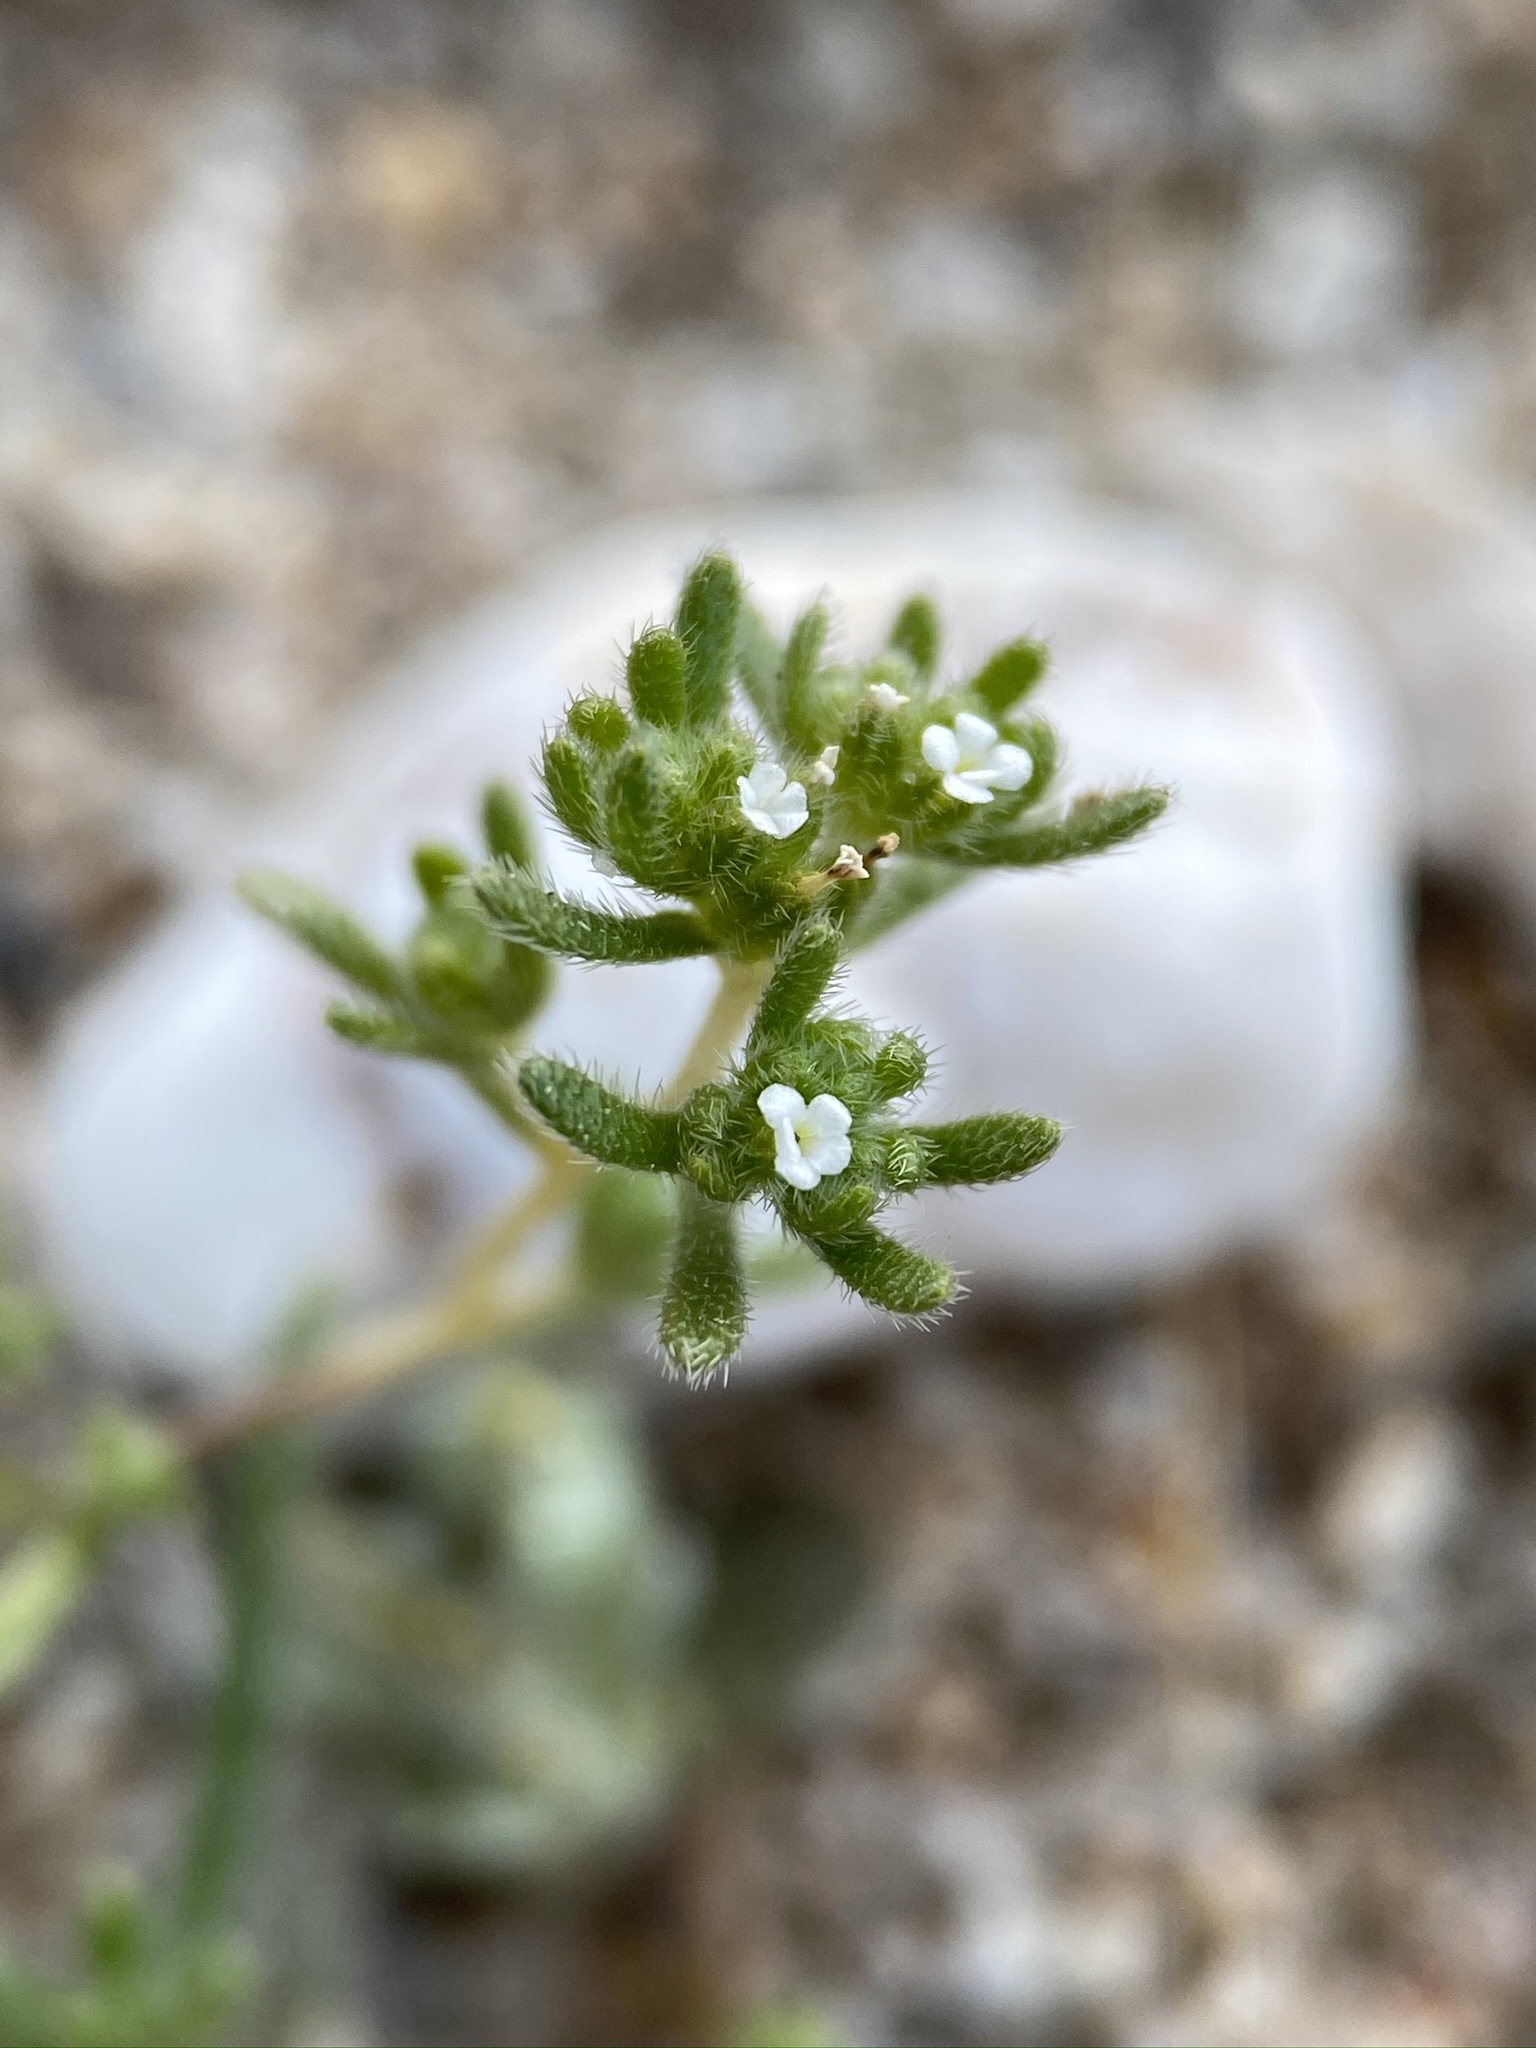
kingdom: Plantae
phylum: Tracheophyta
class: Magnoliopsida
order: Boraginales
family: Boraginaceae
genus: Eremocarya
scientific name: Eremocarya micrantha
